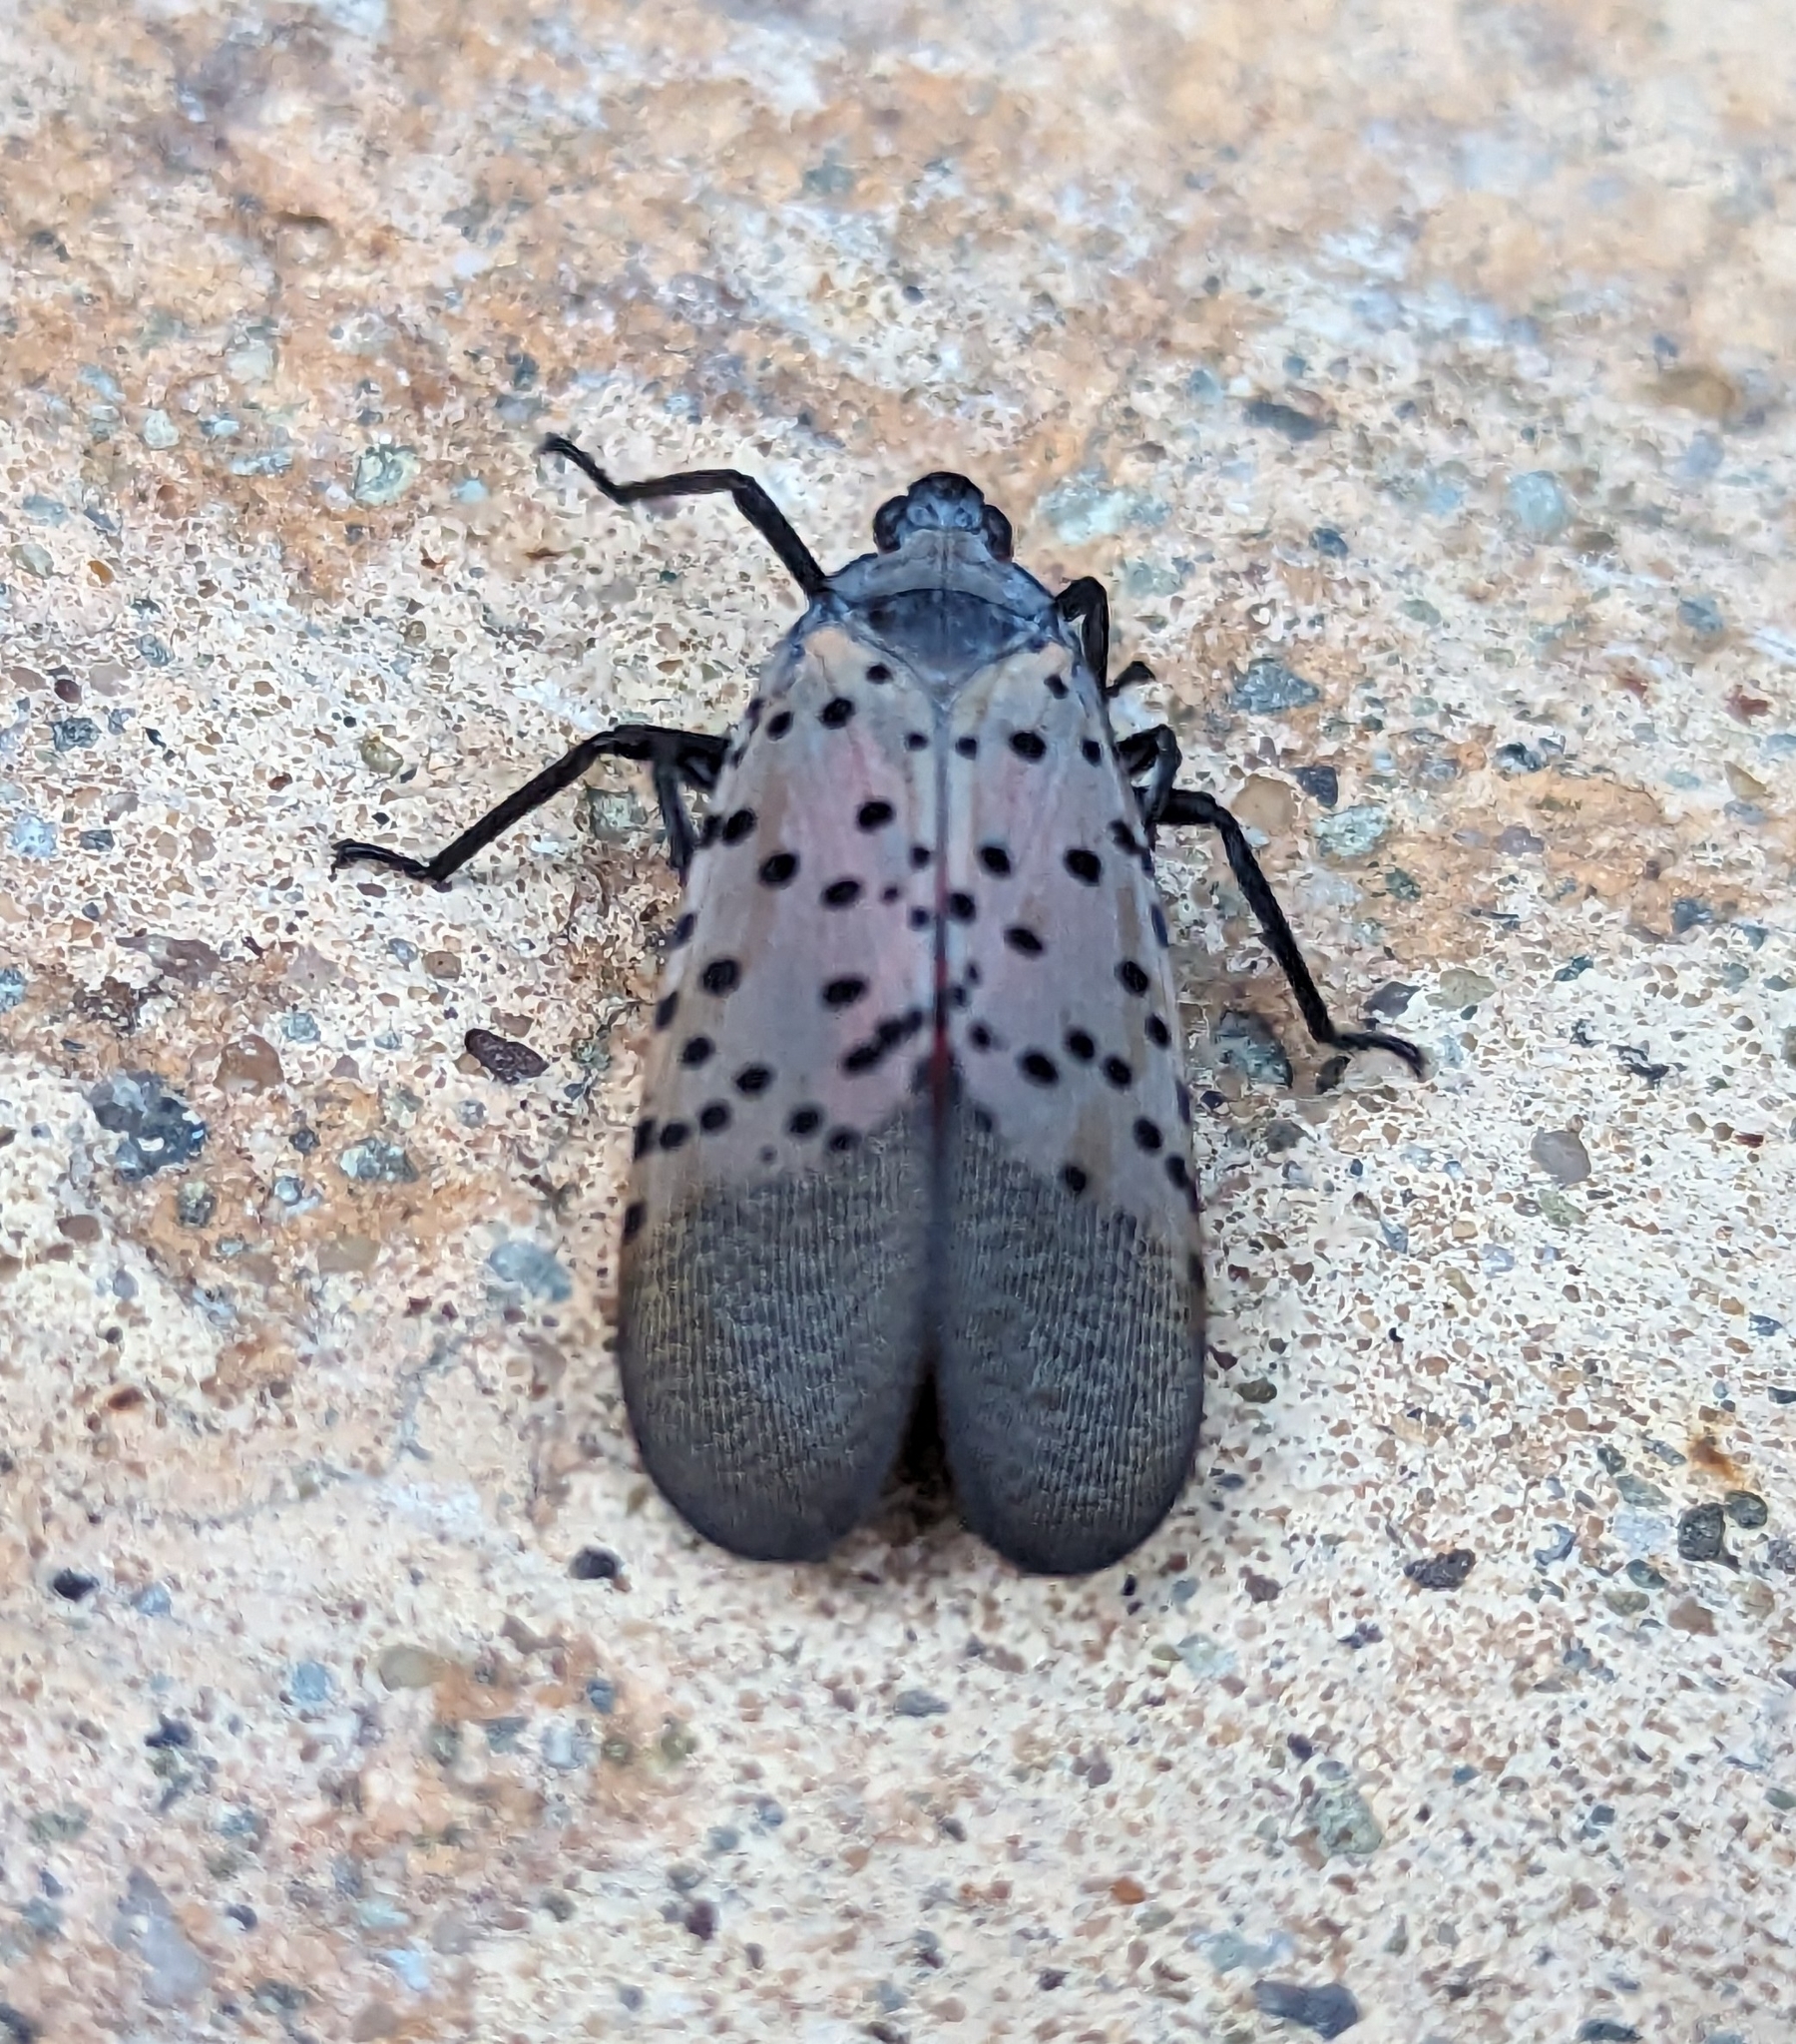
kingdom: Animalia
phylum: Arthropoda
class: Insecta
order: Hemiptera
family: Fulgoridae
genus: Lycorma
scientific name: Lycorma delicatula
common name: Spotted lanternfly
